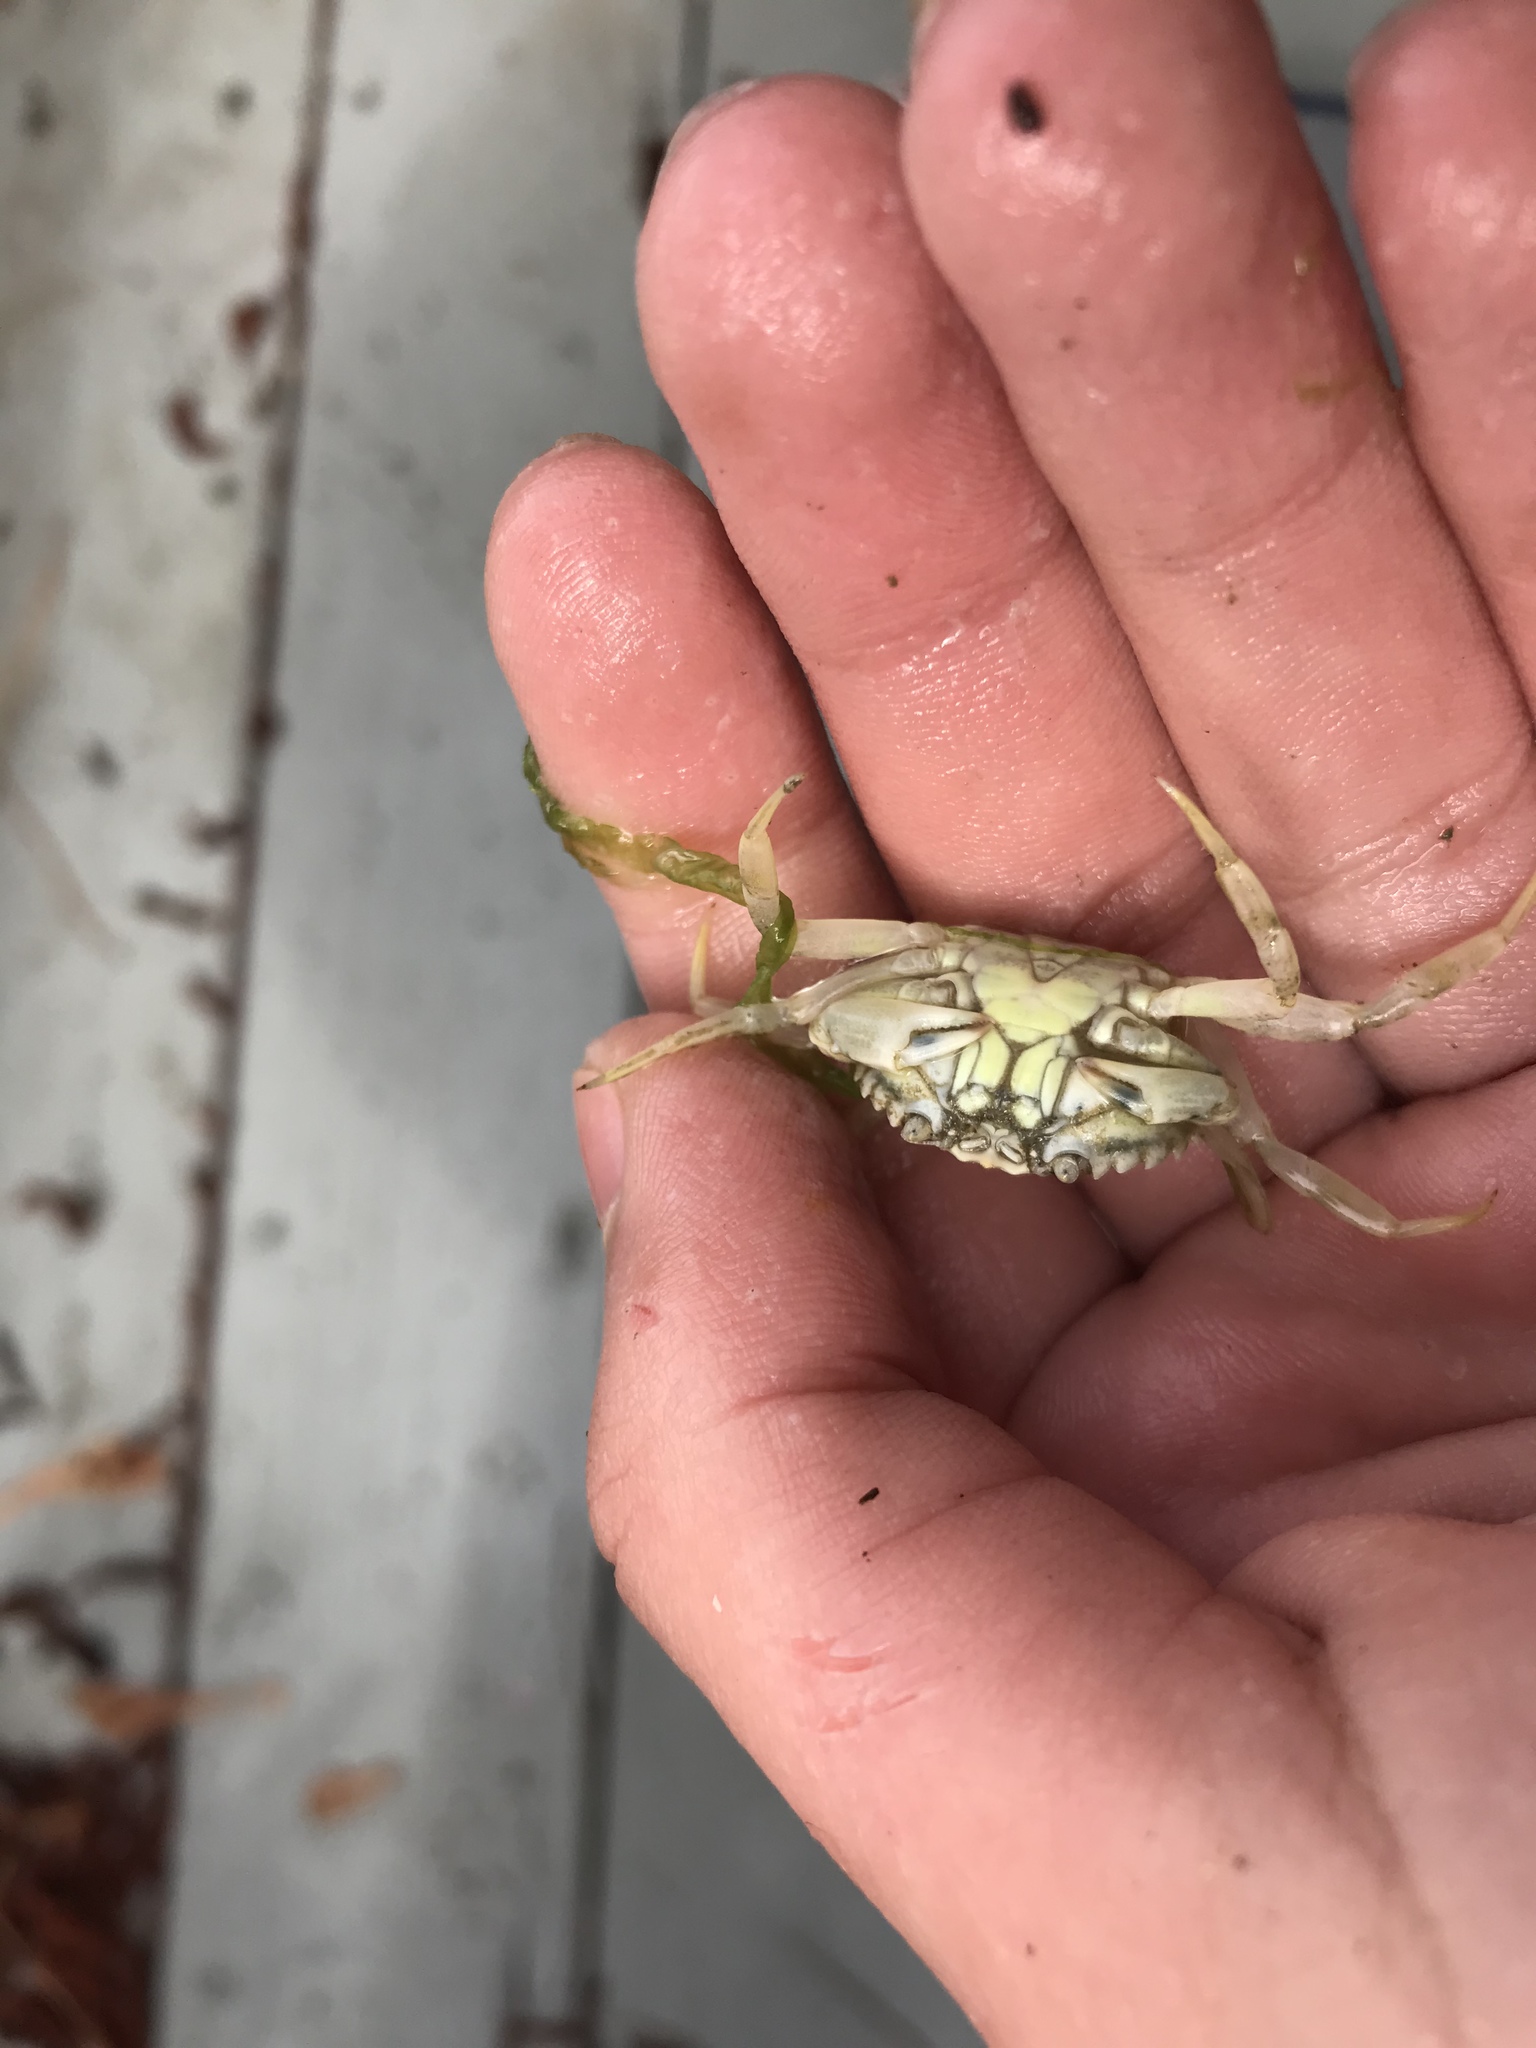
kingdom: Animalia
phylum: Arthropoda
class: Malacostraca
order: Decapoda
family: Carcinidae
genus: Carcinus
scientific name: Carcinus maenas
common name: European green crab
